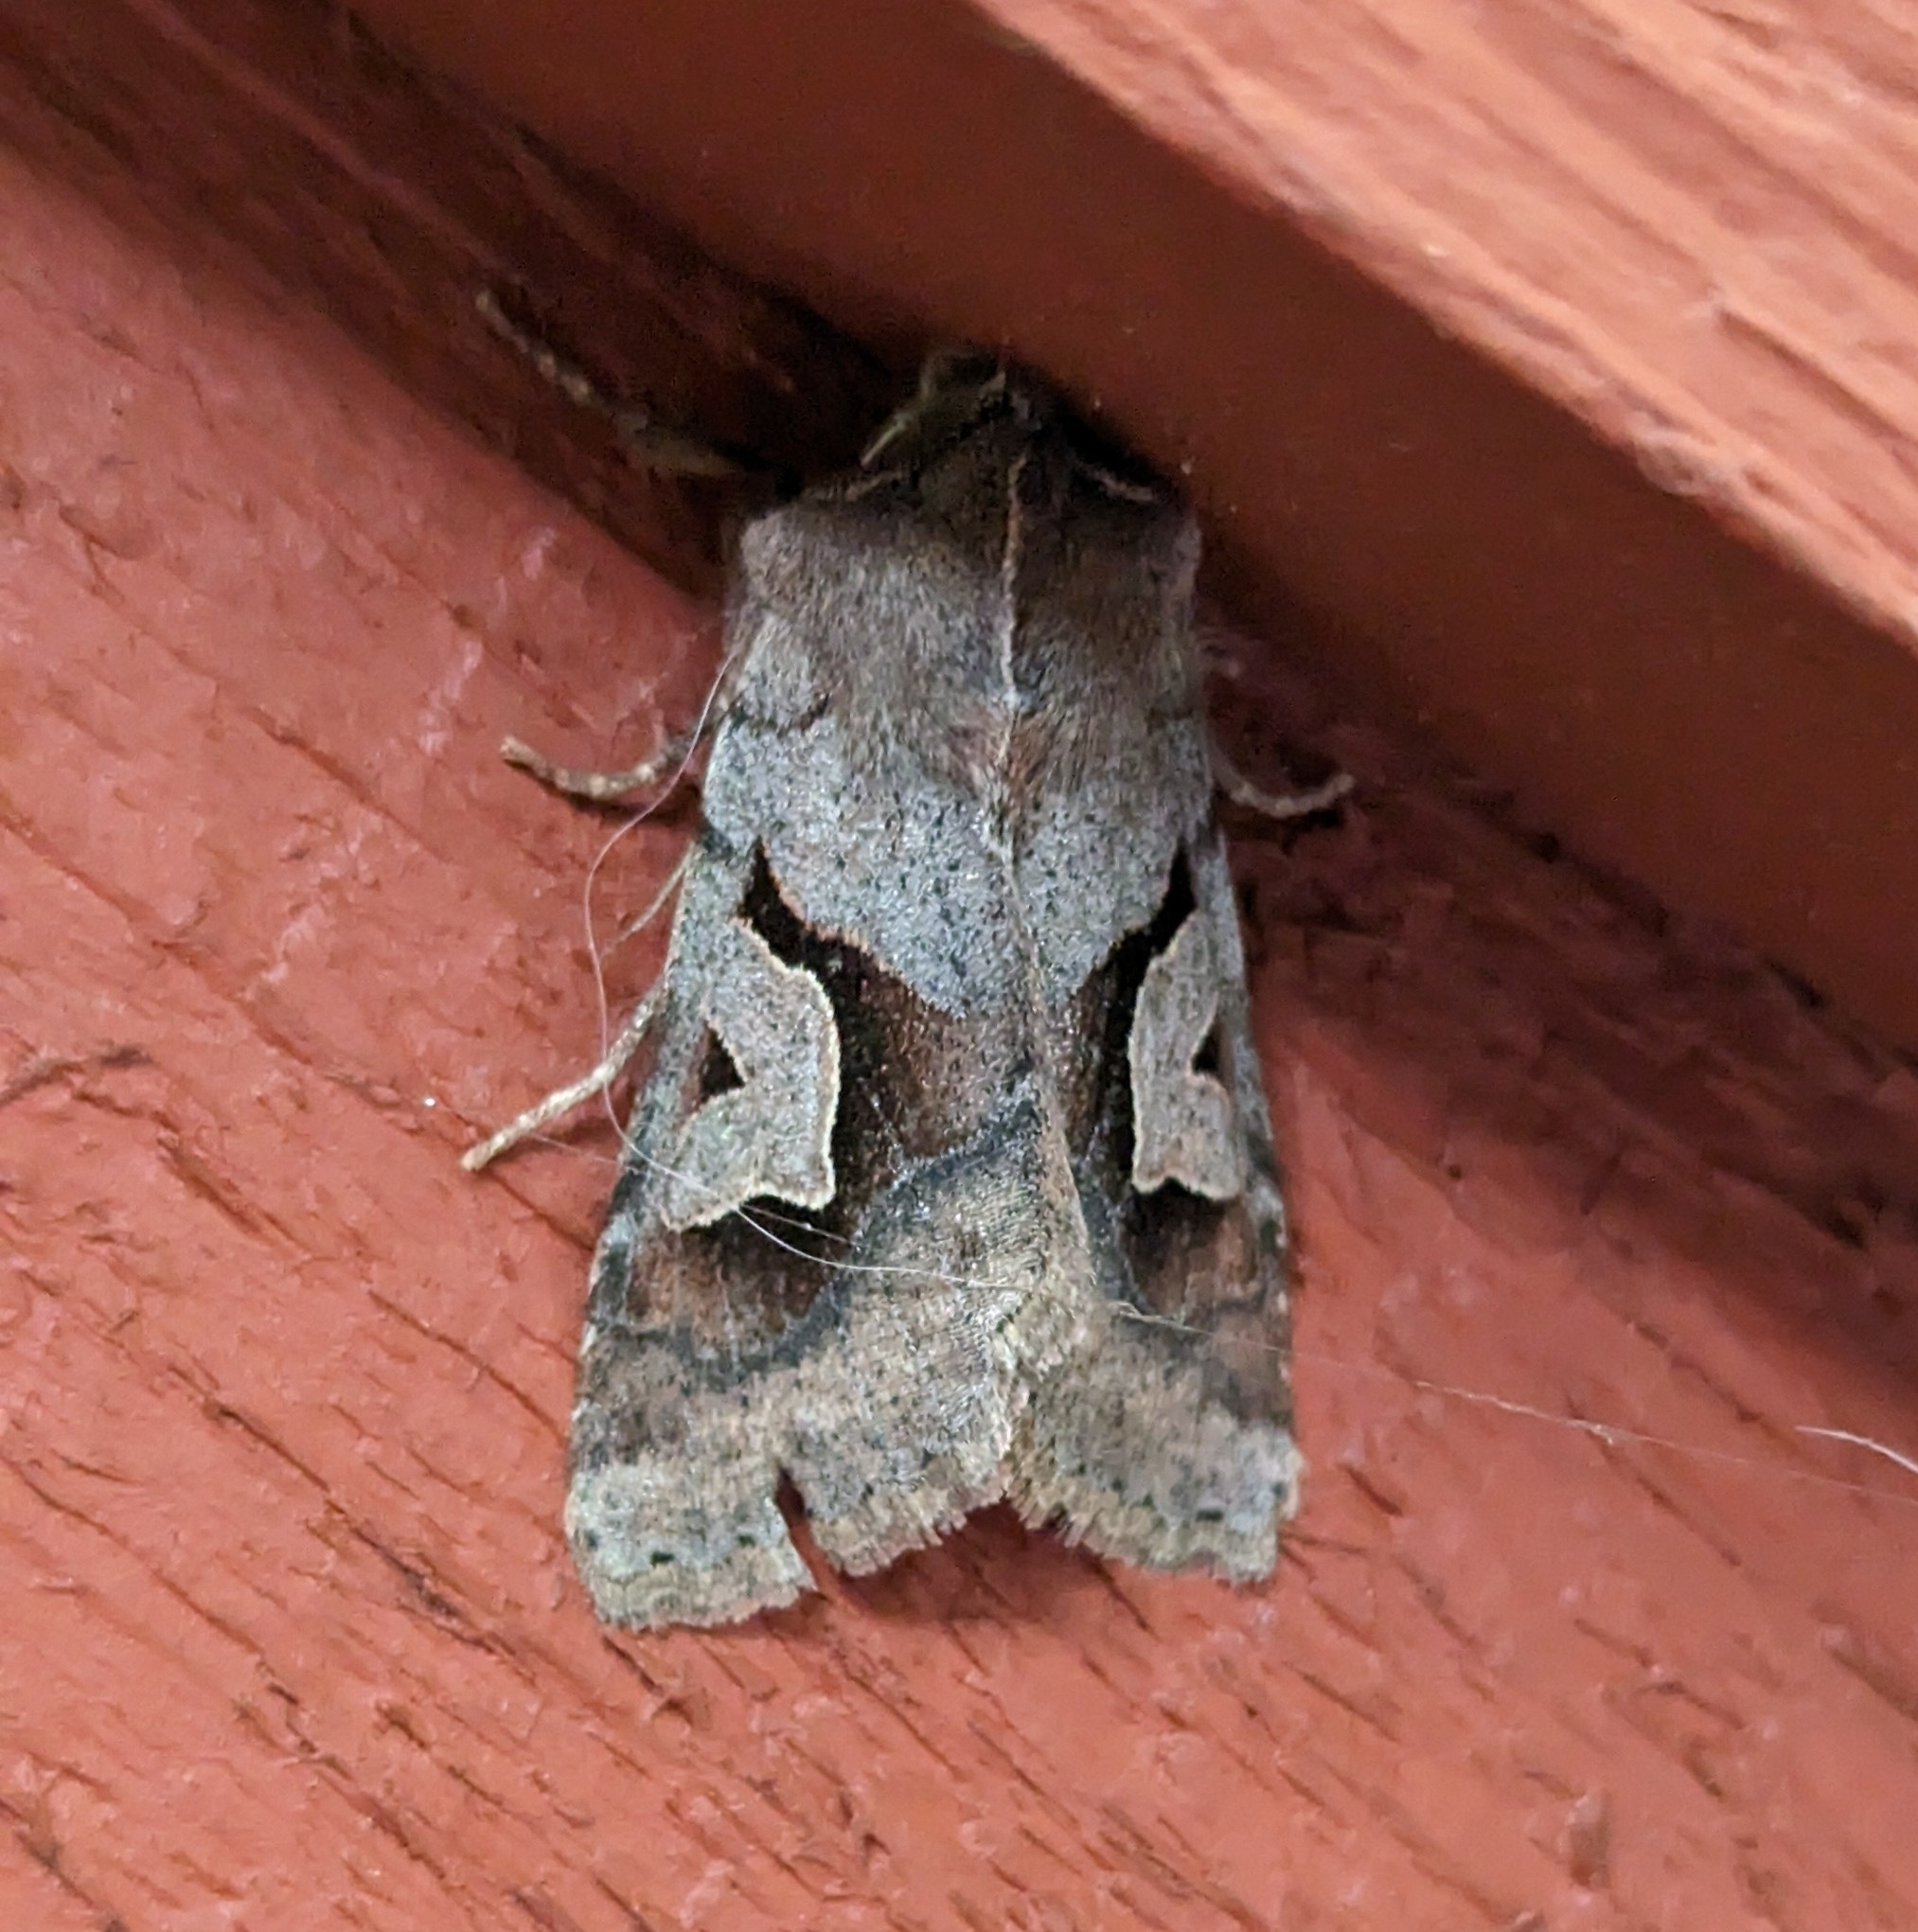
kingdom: Animalia
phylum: Arthropoda
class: Insecta
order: Lepidoptera
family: Noctuidae
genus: Acerra
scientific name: Acerra normalis
